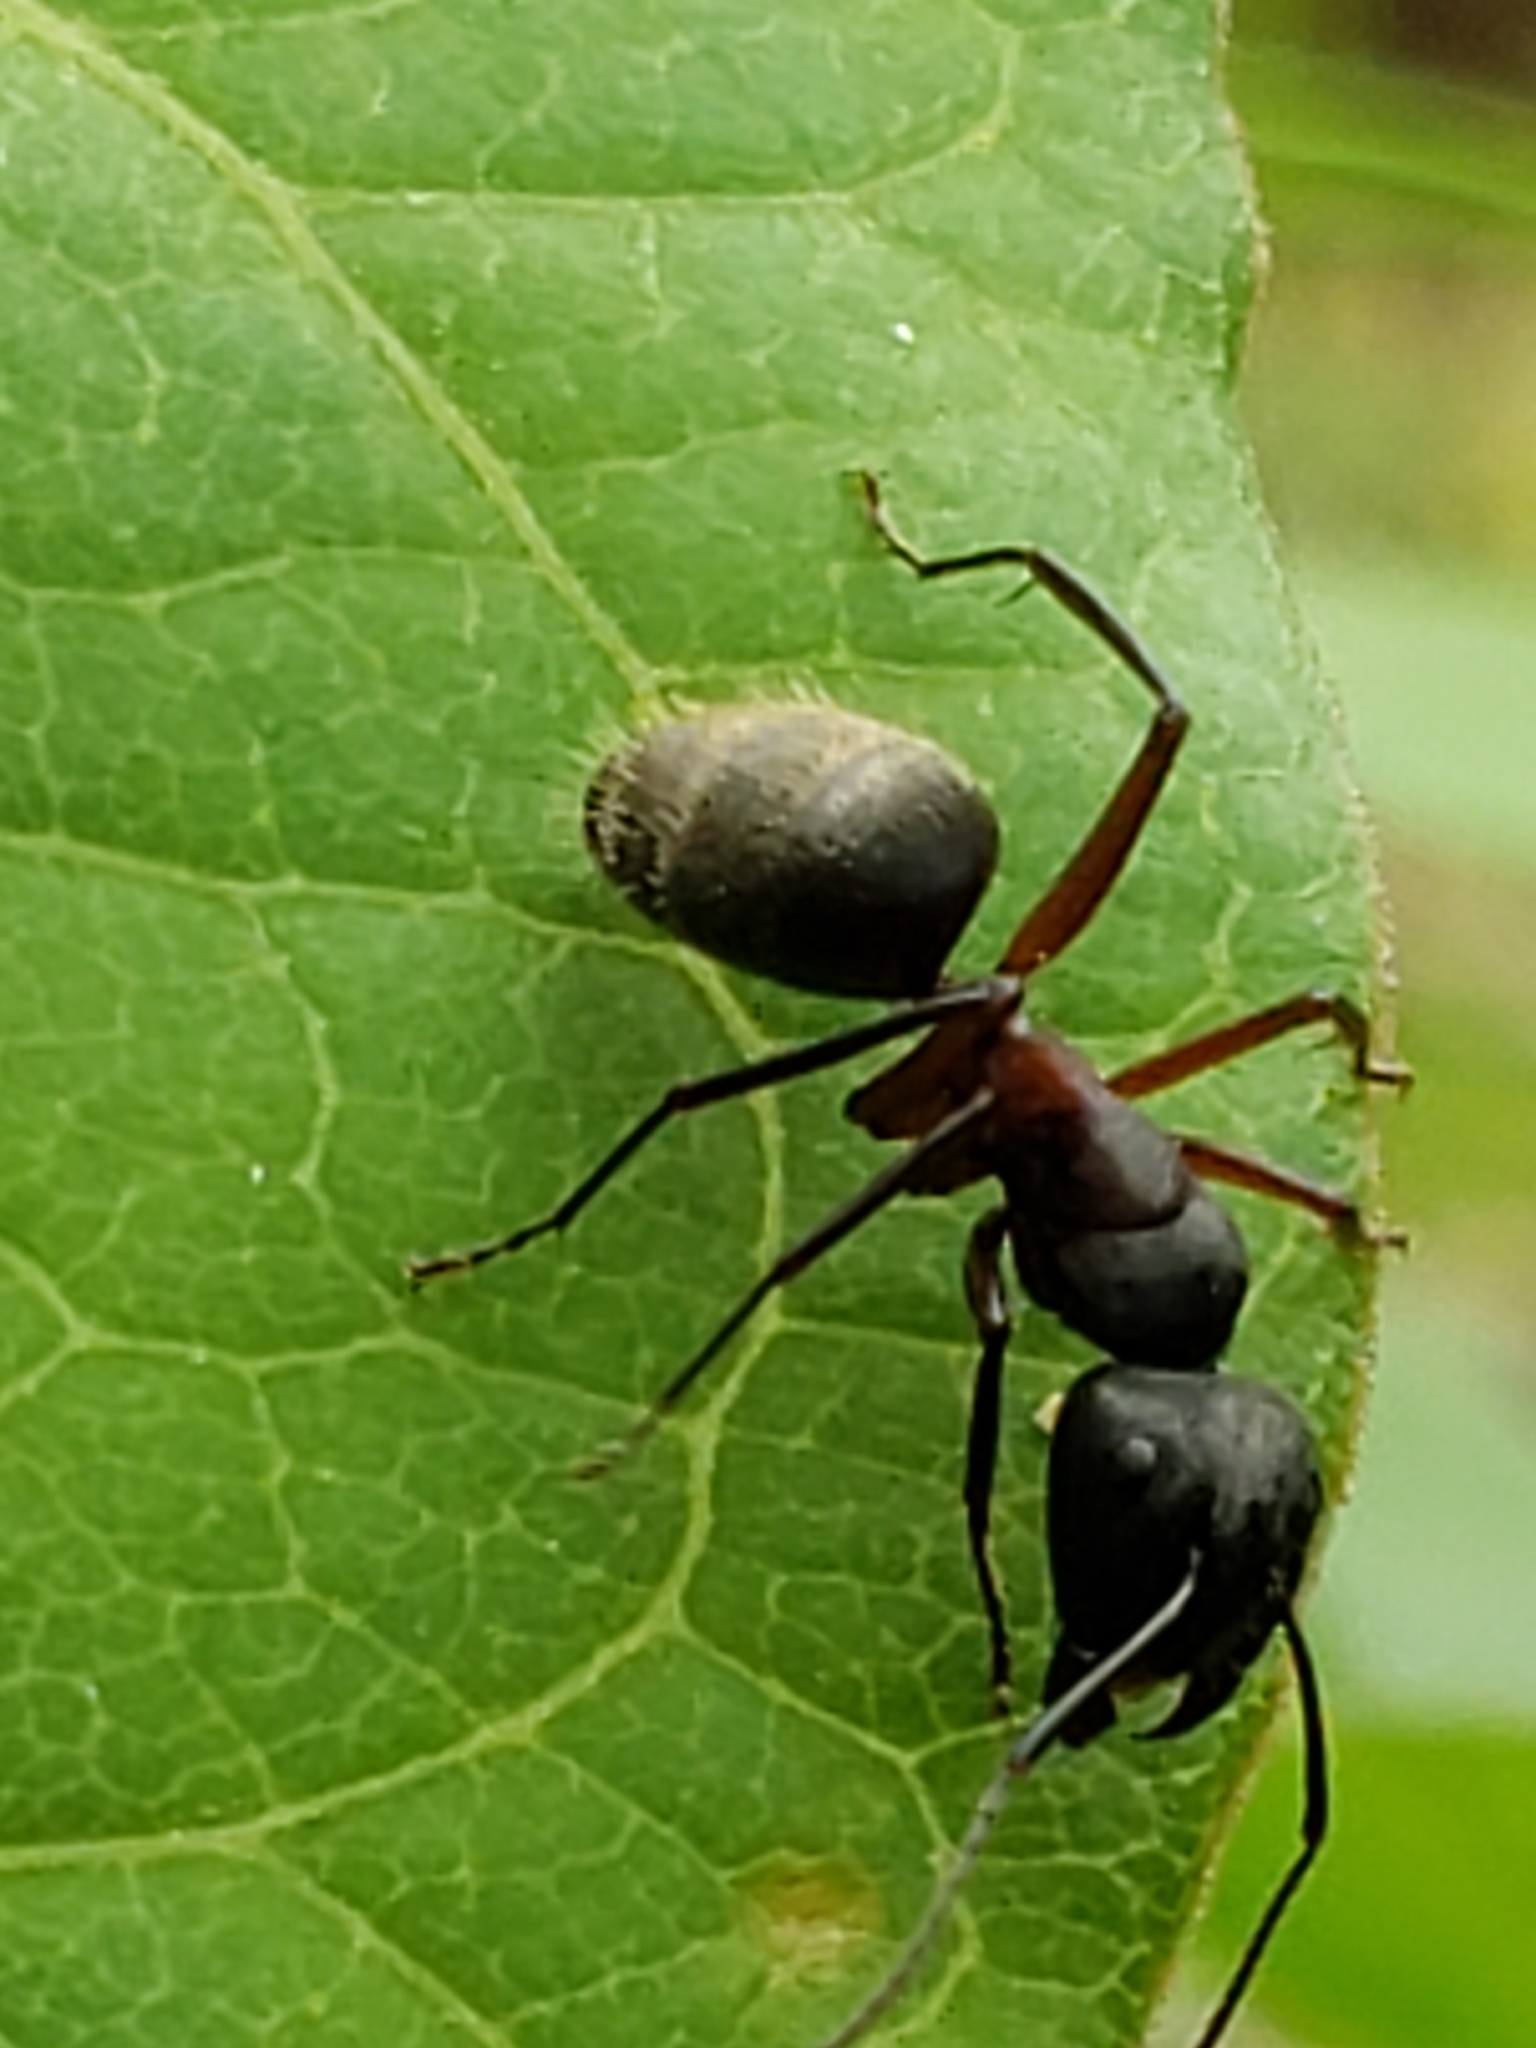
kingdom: Animalia
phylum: Arthropoda
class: Insecta
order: Hymenoptera
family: Formicidae
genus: Camponotus
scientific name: Camponotus chromaiodes
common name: Red carpenter ant
